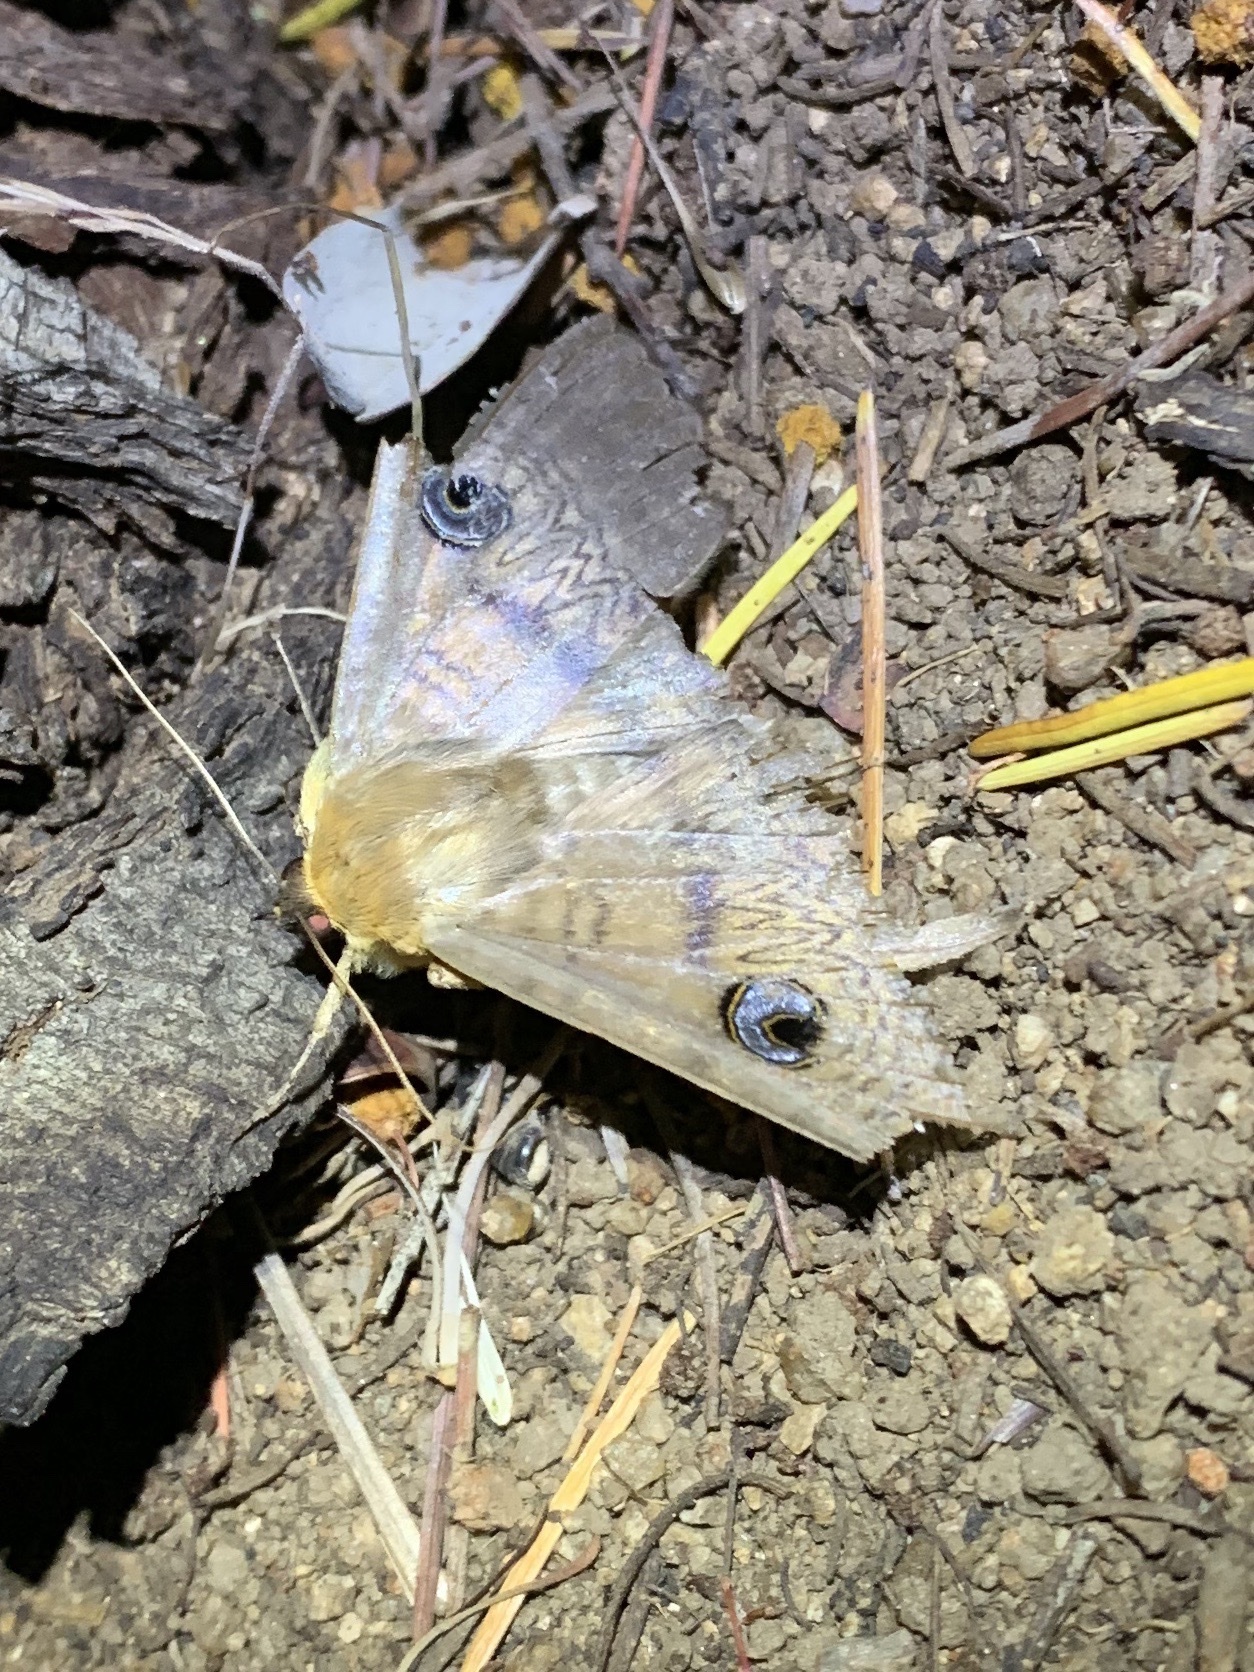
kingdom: Animalia
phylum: Arthropoda
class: Insecta
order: Lepidoptera
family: Erebidae
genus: Dasypodia
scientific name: Dasypodia selenophora
